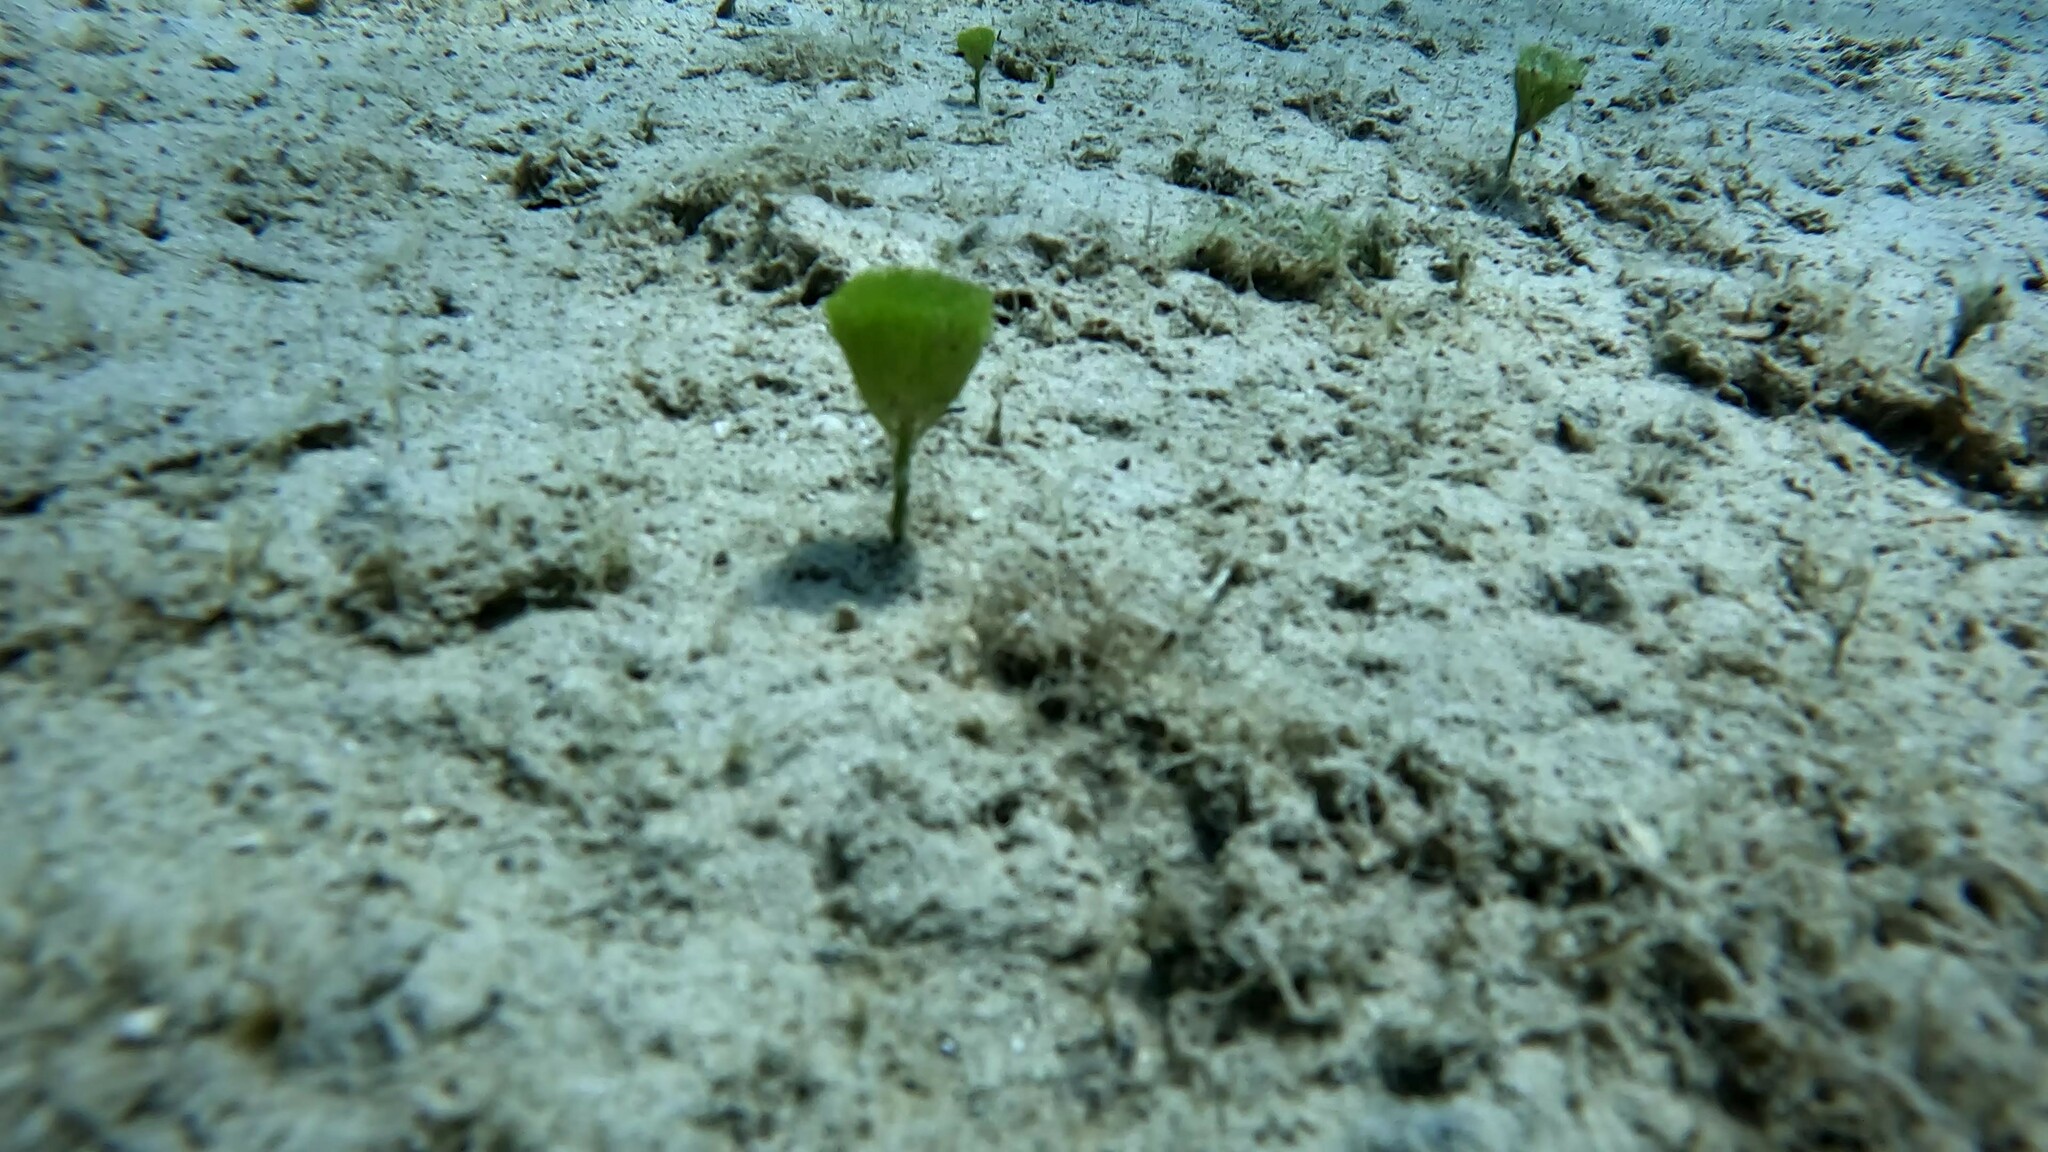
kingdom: Plantae
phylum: Chlorophyta
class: Ulvophyceae
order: Bryopsidales
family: Udoteaceae
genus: Penicillus
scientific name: Penicillus capitatus
